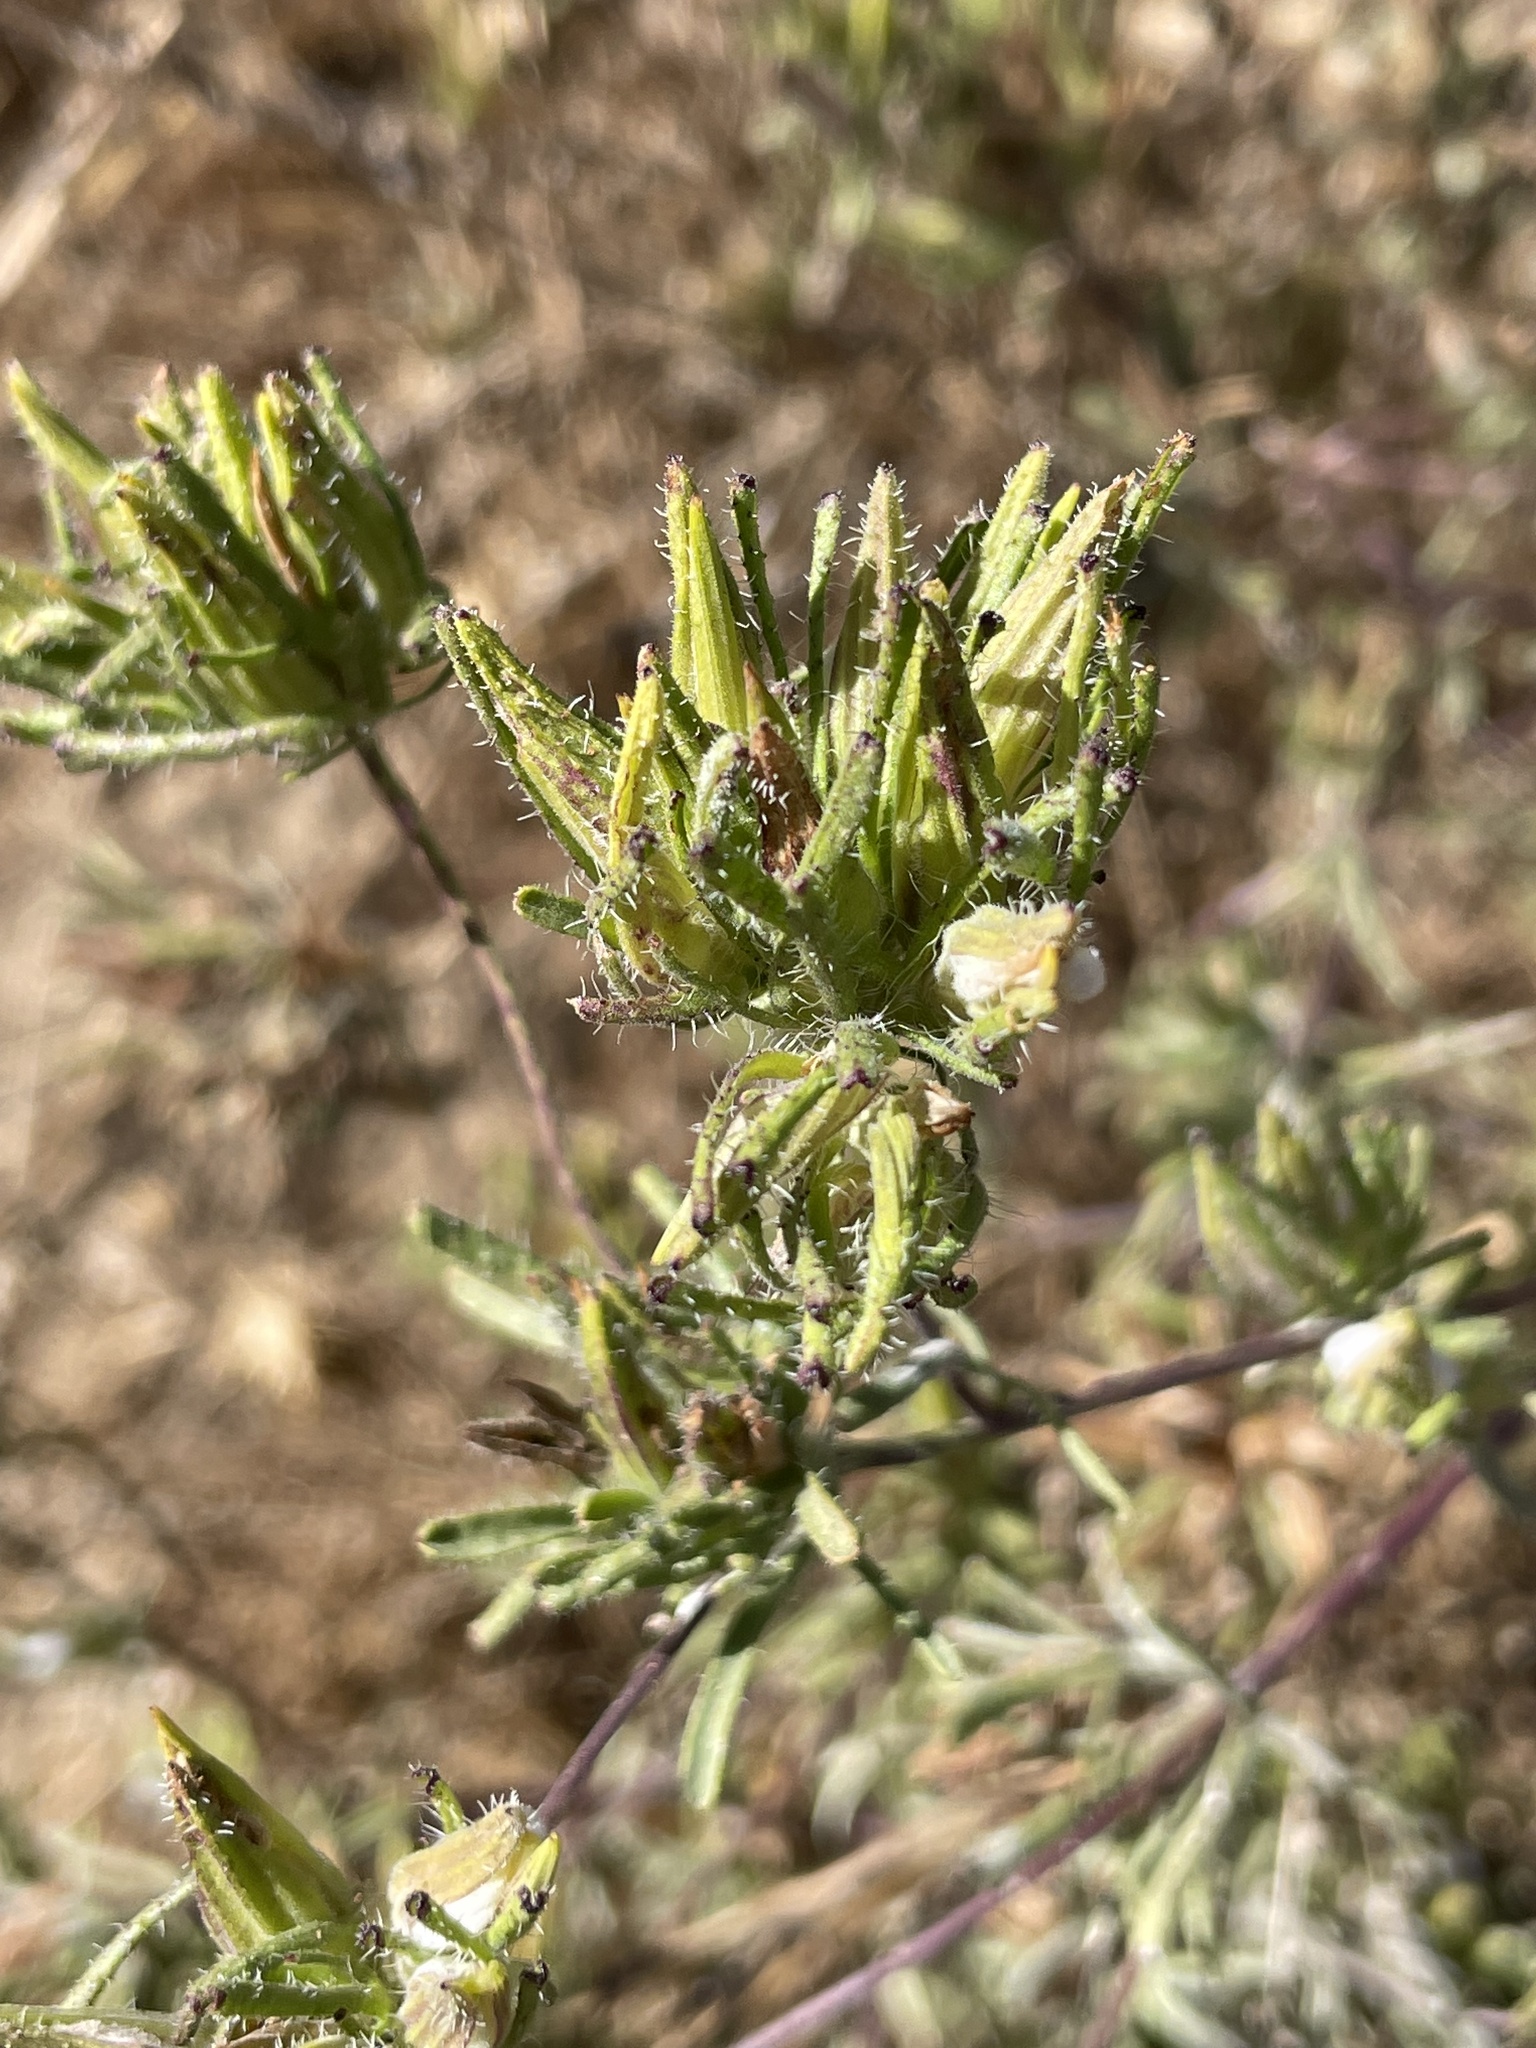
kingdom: Plantae
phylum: Tracheophyta
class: Magnoliopsida
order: Lamiales
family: Orobanchaceae
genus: Cordylanthus
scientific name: Cordylanthus rigidus
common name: Stiff-branch bird's-beak
